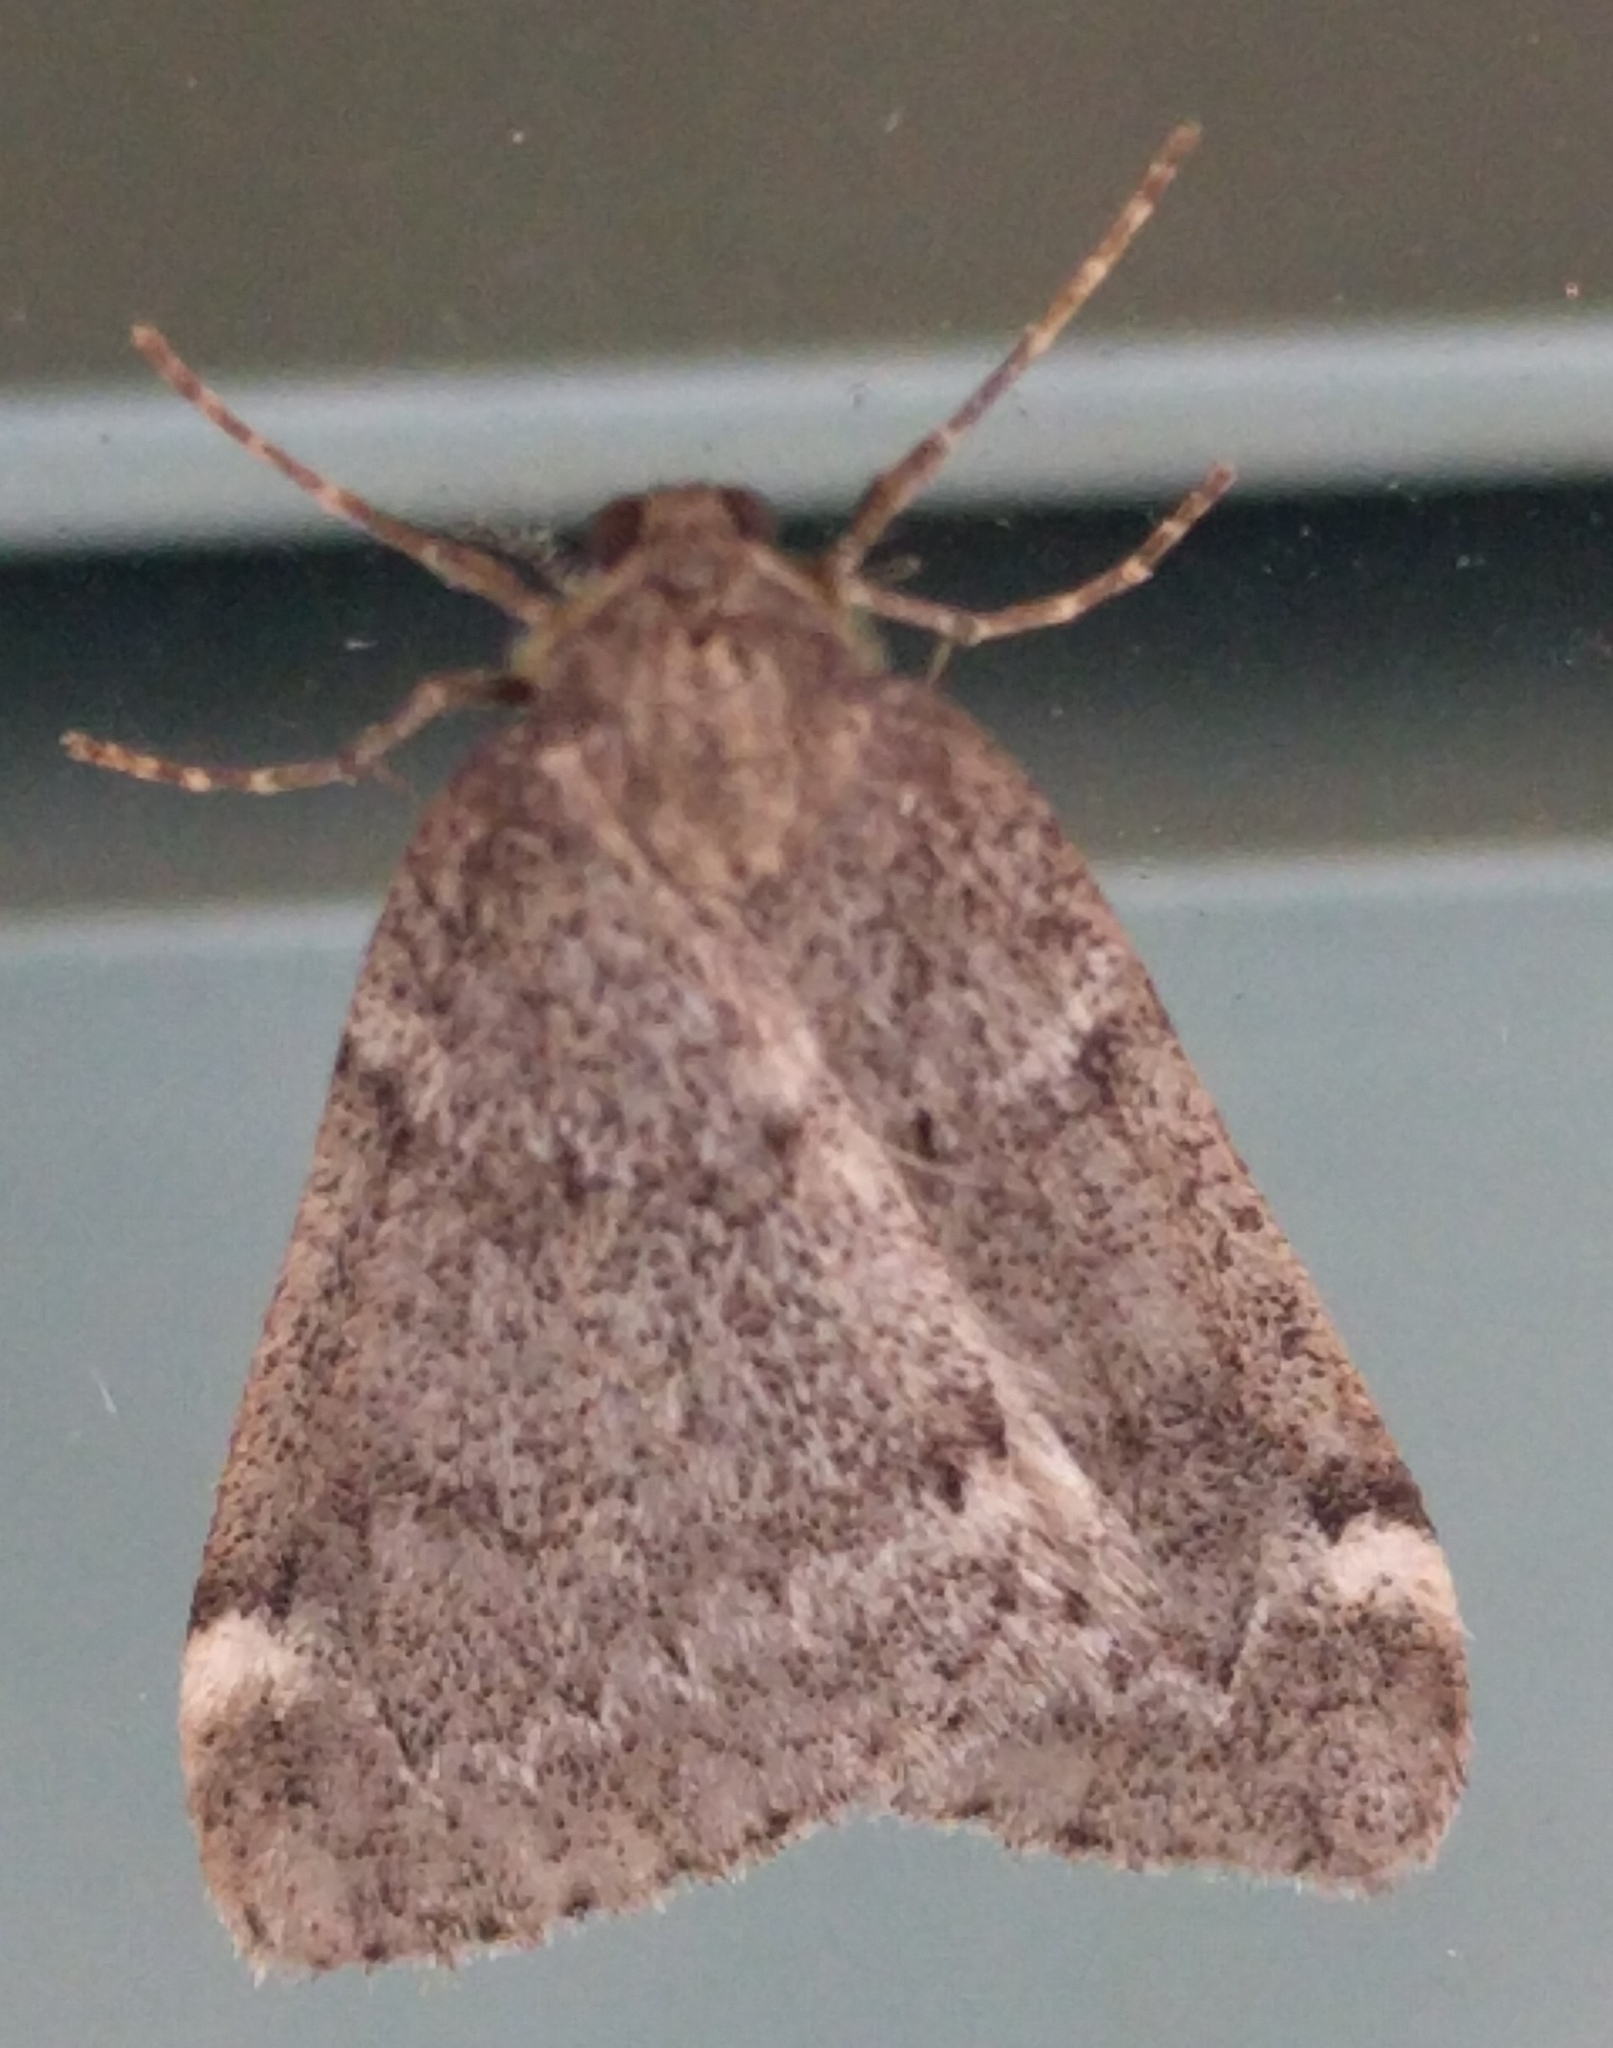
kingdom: Animalia
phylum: Arthropoda
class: Insecta
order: Lepidoptera
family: Geometridae
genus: Alsophila
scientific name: Alsophila pometaria
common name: Fall cankerworm
